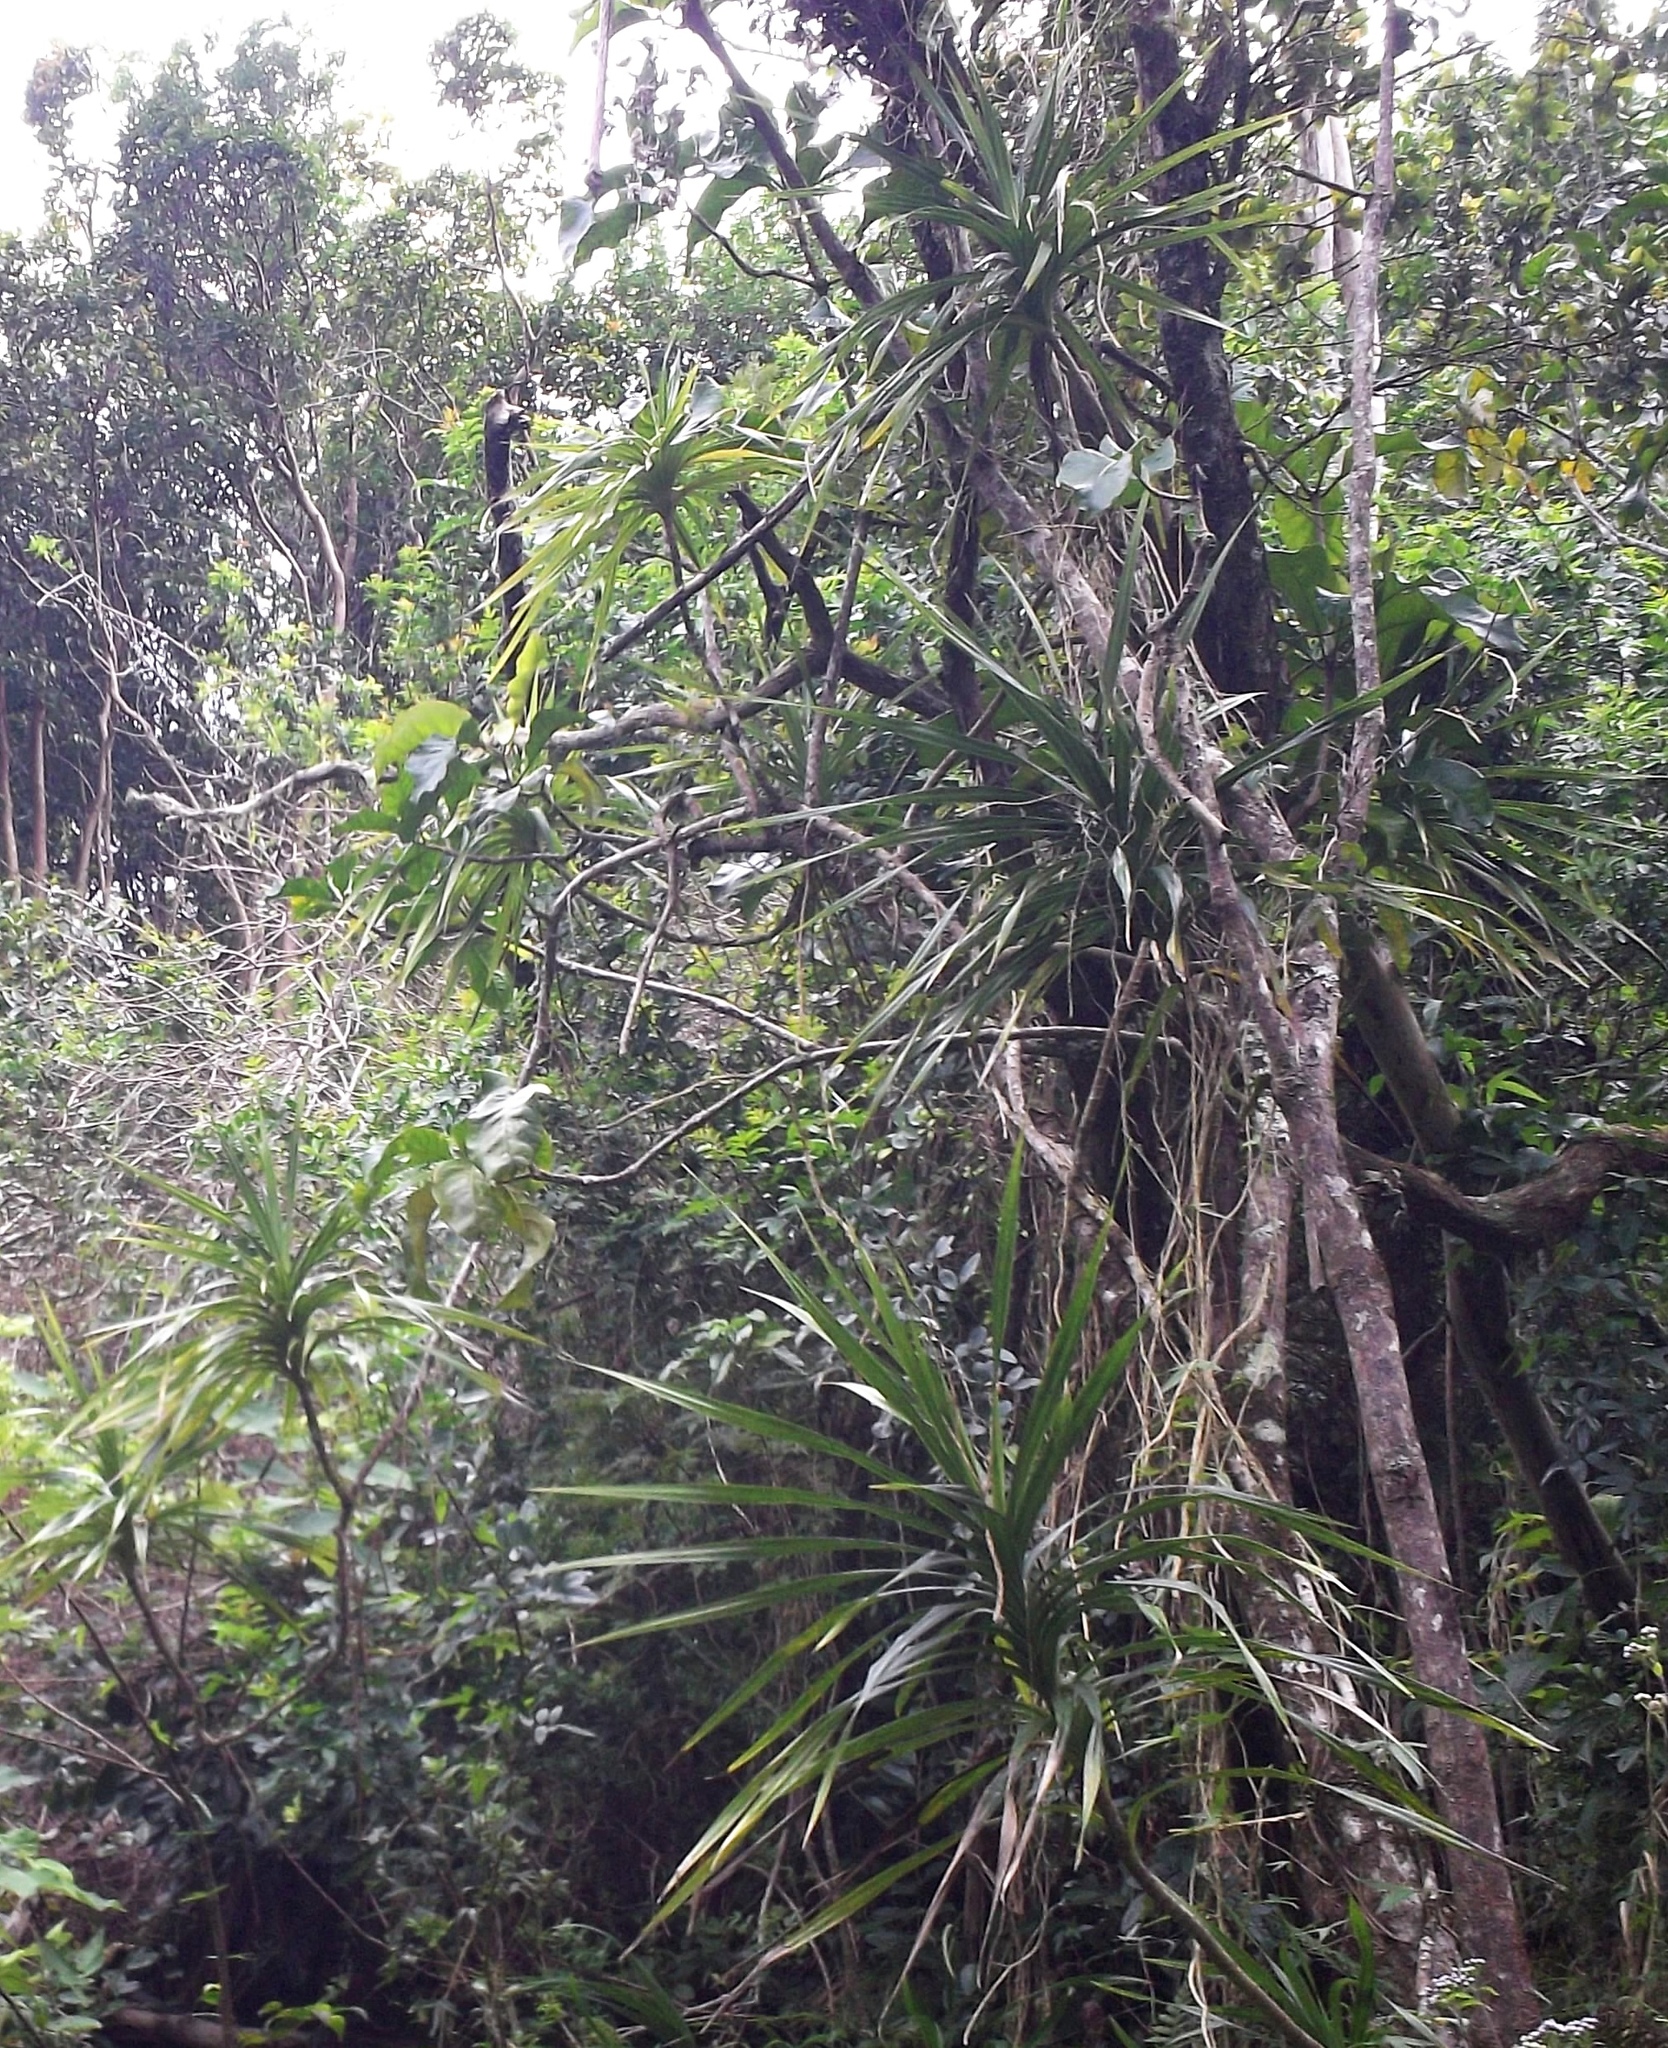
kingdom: Plantae
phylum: Tracheophyta
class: Liliopsida
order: Pandanales
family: Pandanaceae
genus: Freycinetia
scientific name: Freycinetia arborea
